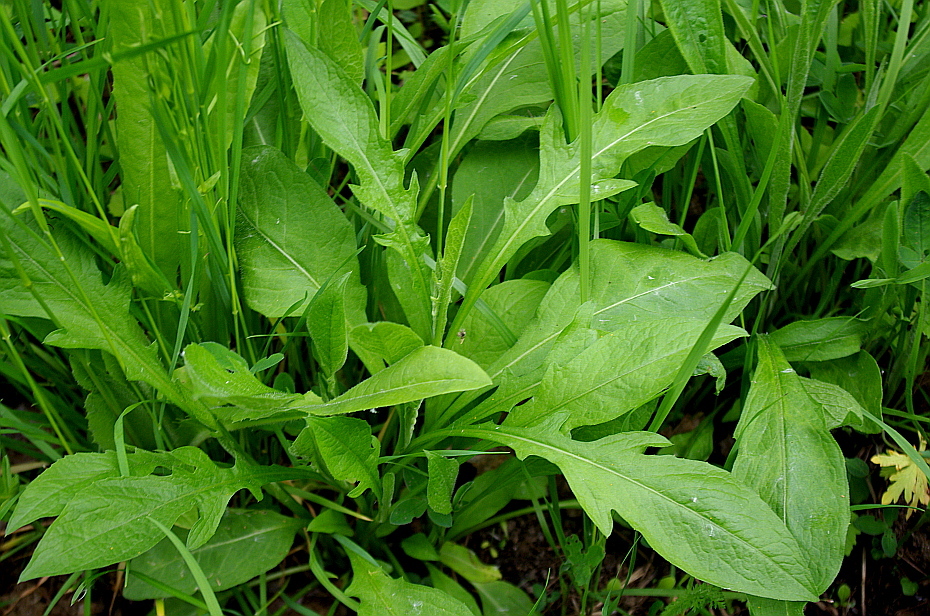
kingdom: Plantae
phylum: Tracheophyta
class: Magnoliopsida
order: Dipsacales
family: Caprifoliaceae
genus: Knautia
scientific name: Knautia arvensis
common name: Field scabiosa
